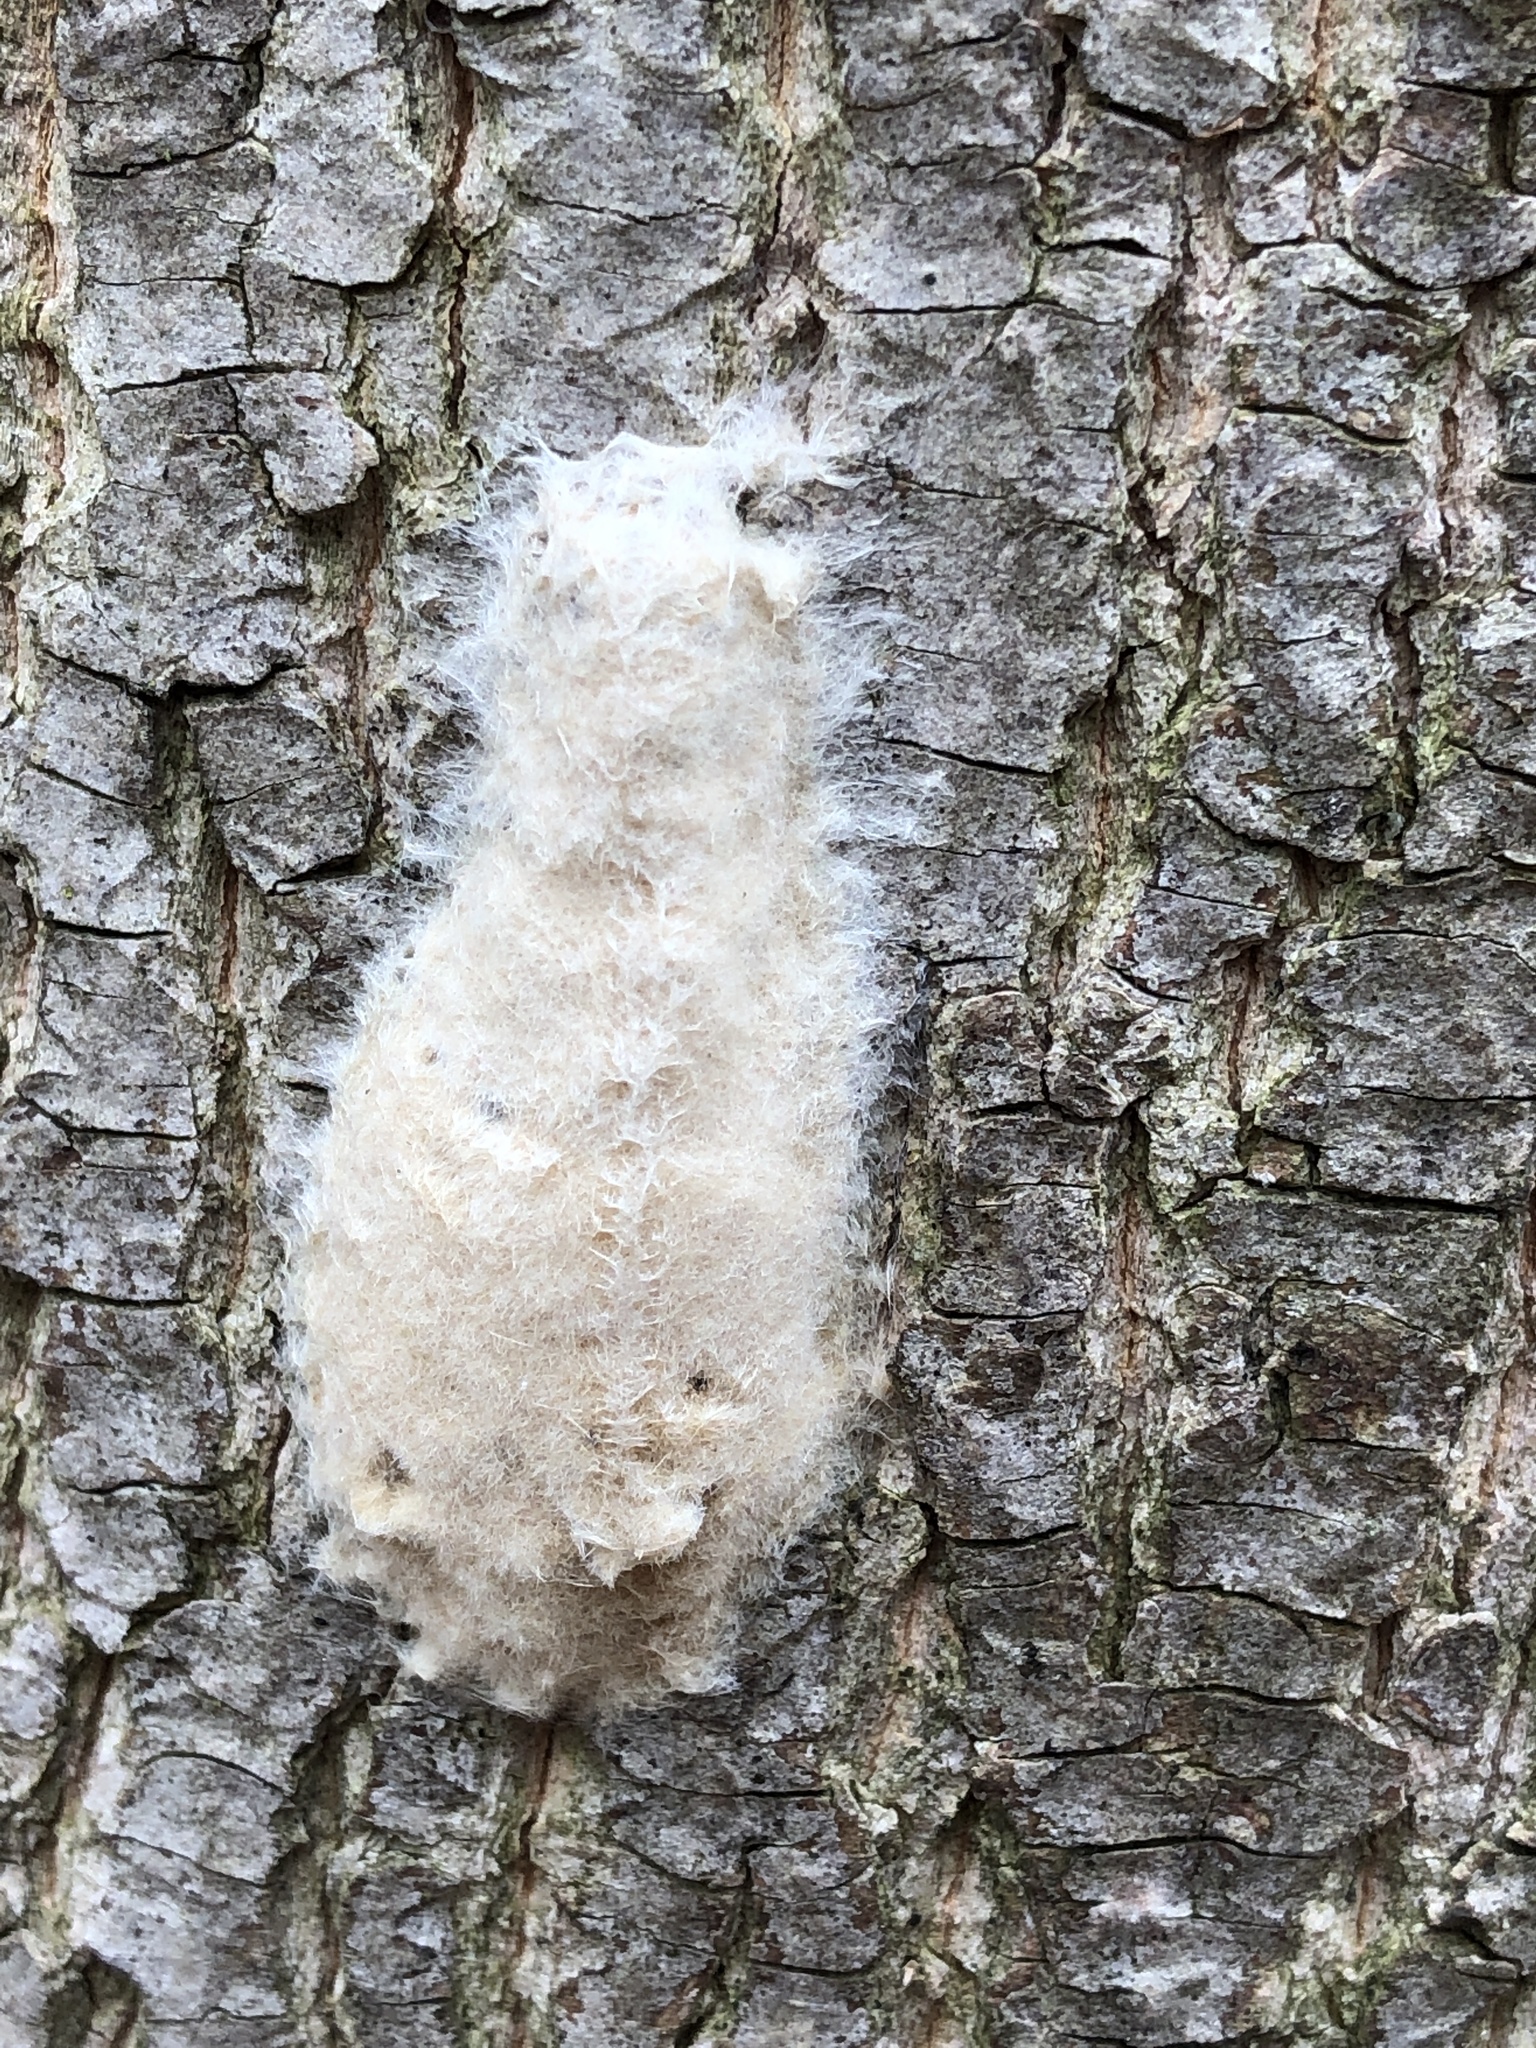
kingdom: Animalia
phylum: Arthropoda
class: Insecta
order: Lepidoptera
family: Erebidae
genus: Lymantria
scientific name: Lymantria dispar
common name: Gypsy moth
